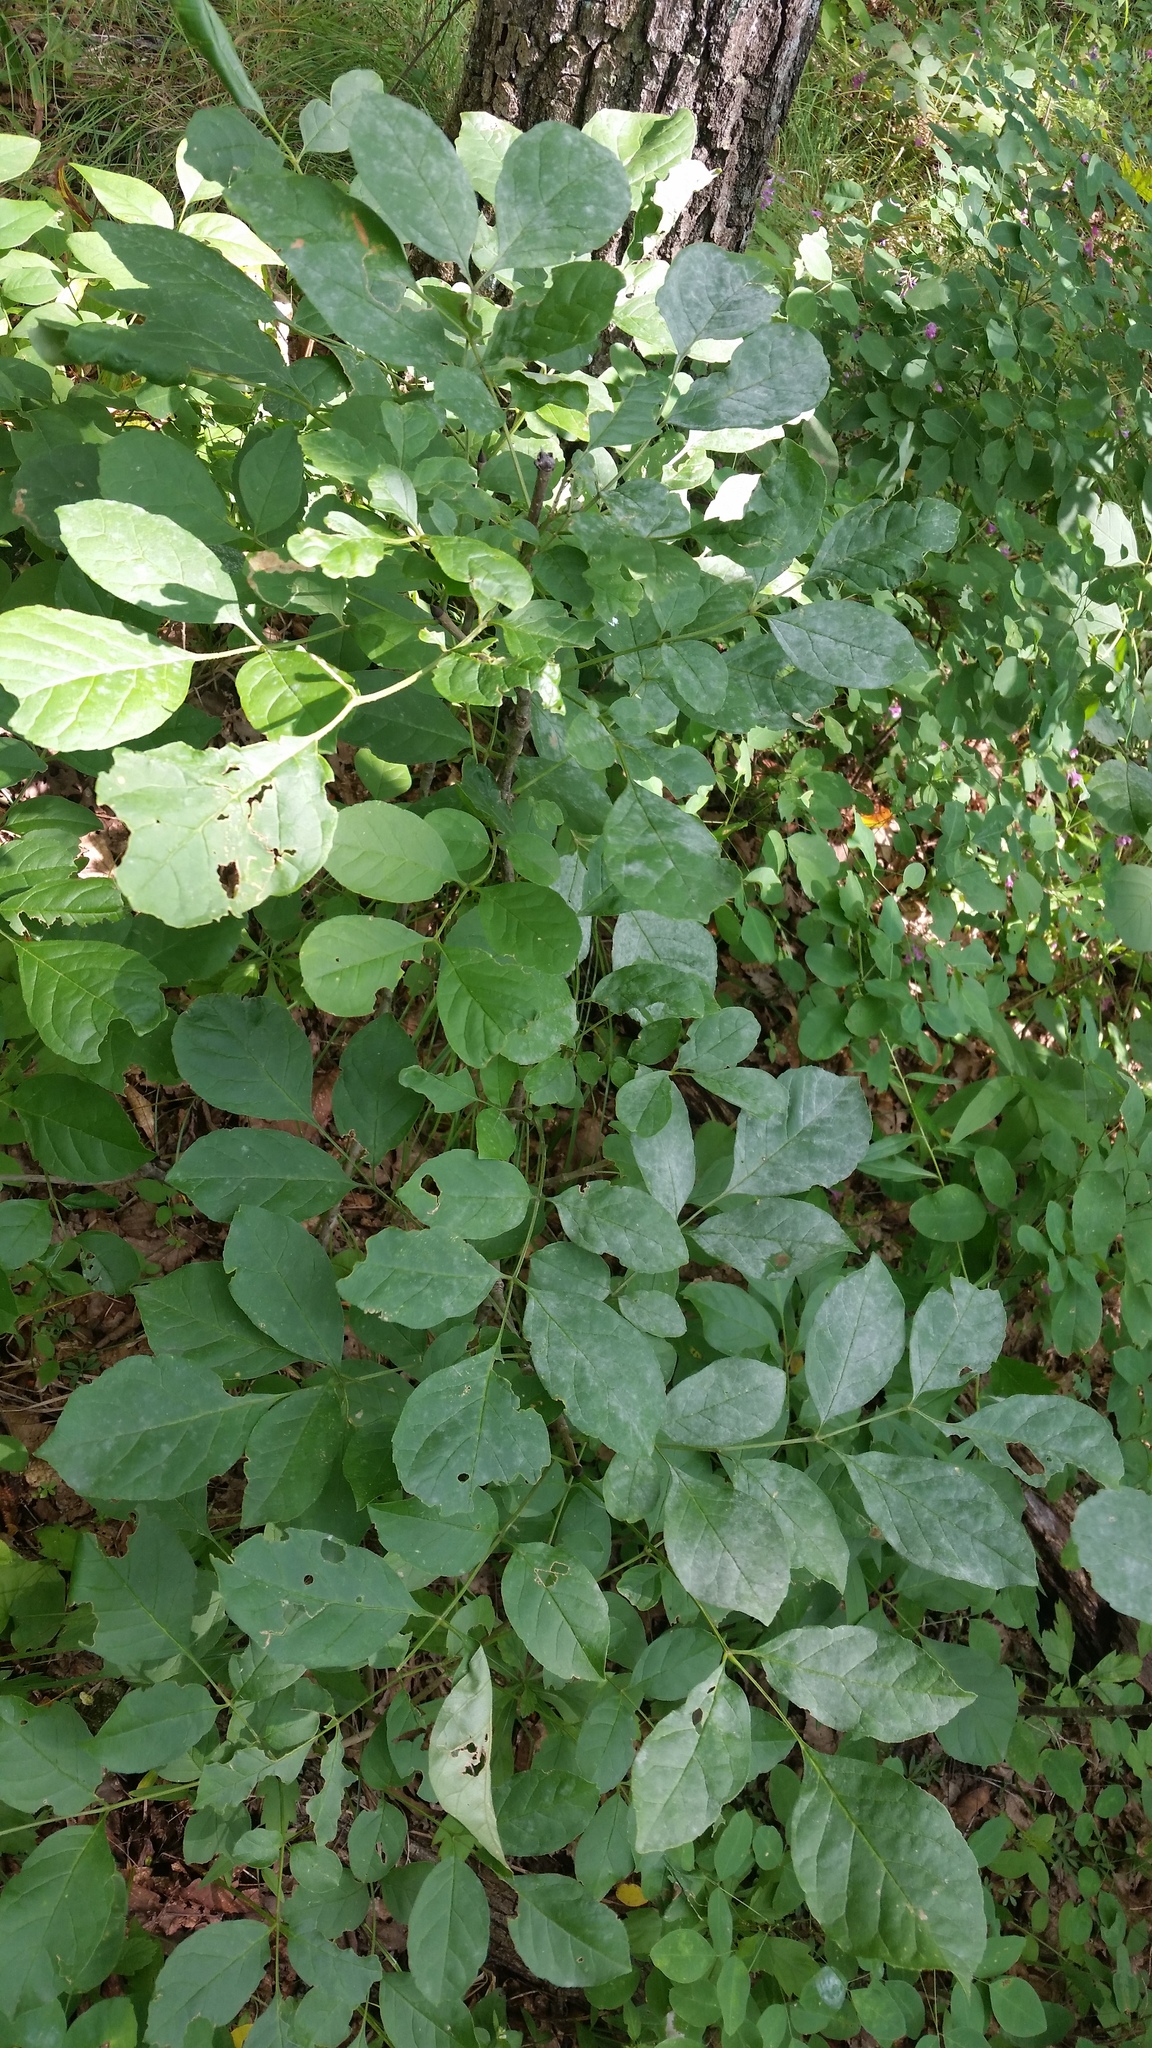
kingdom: Plantae
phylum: Tracheophyta
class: Magnoliopsida
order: Lamiales
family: Oleaceae
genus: Fraxinus
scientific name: Fraxinus chinensis
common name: Chinese ash
